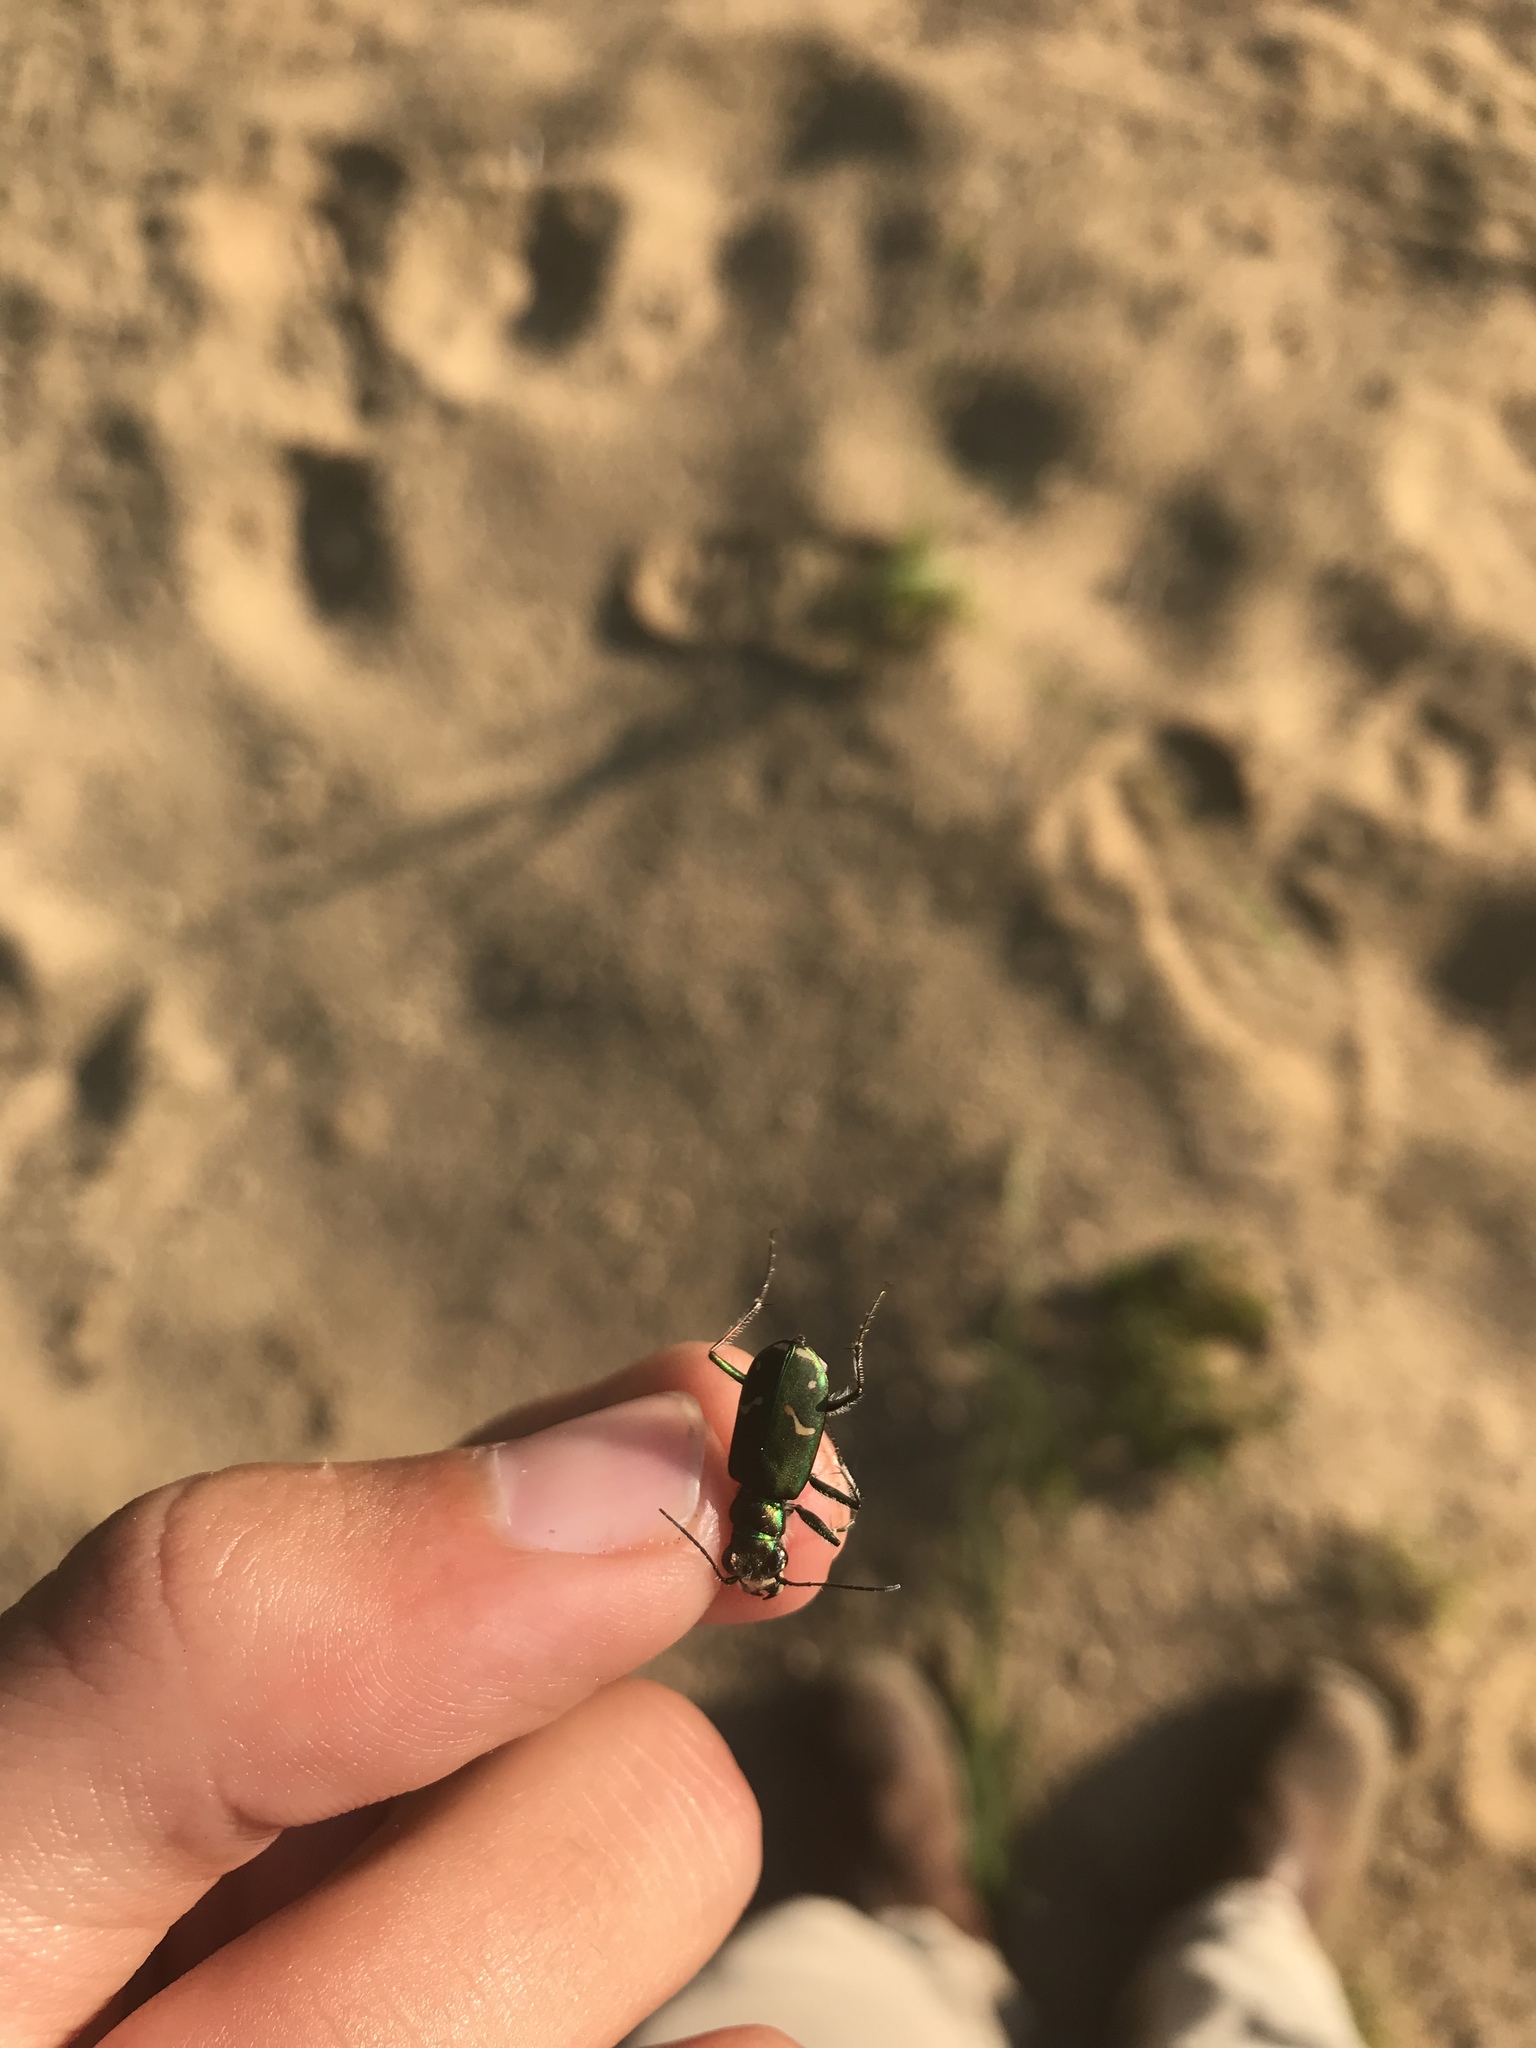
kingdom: Animalia
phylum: Arthropoda
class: Insecta
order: Coleoptera
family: Carabidae
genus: Cicindela
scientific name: Cicindela purpurea
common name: Cow path tiger beetle
